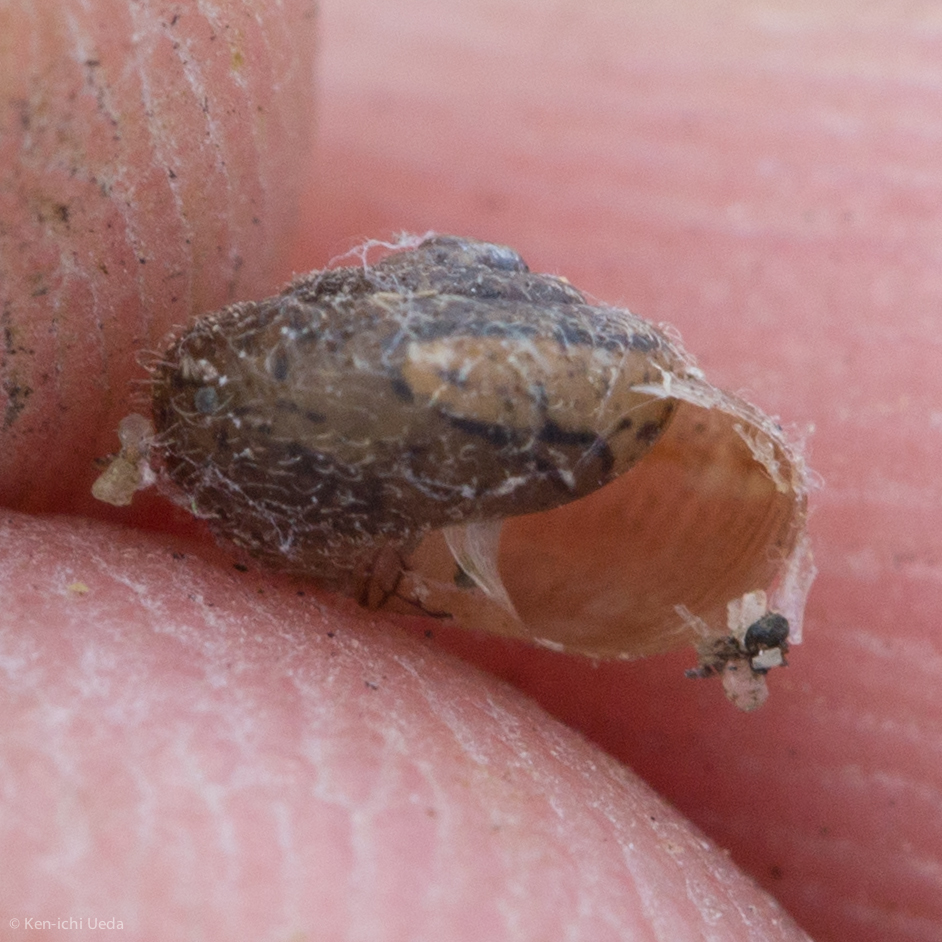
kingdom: Animalia
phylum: Mollusca
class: Gastropoda
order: Stylommatophora
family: Geomitridae
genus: Xerotricha
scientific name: Xerotricha conspurcata
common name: Snail
